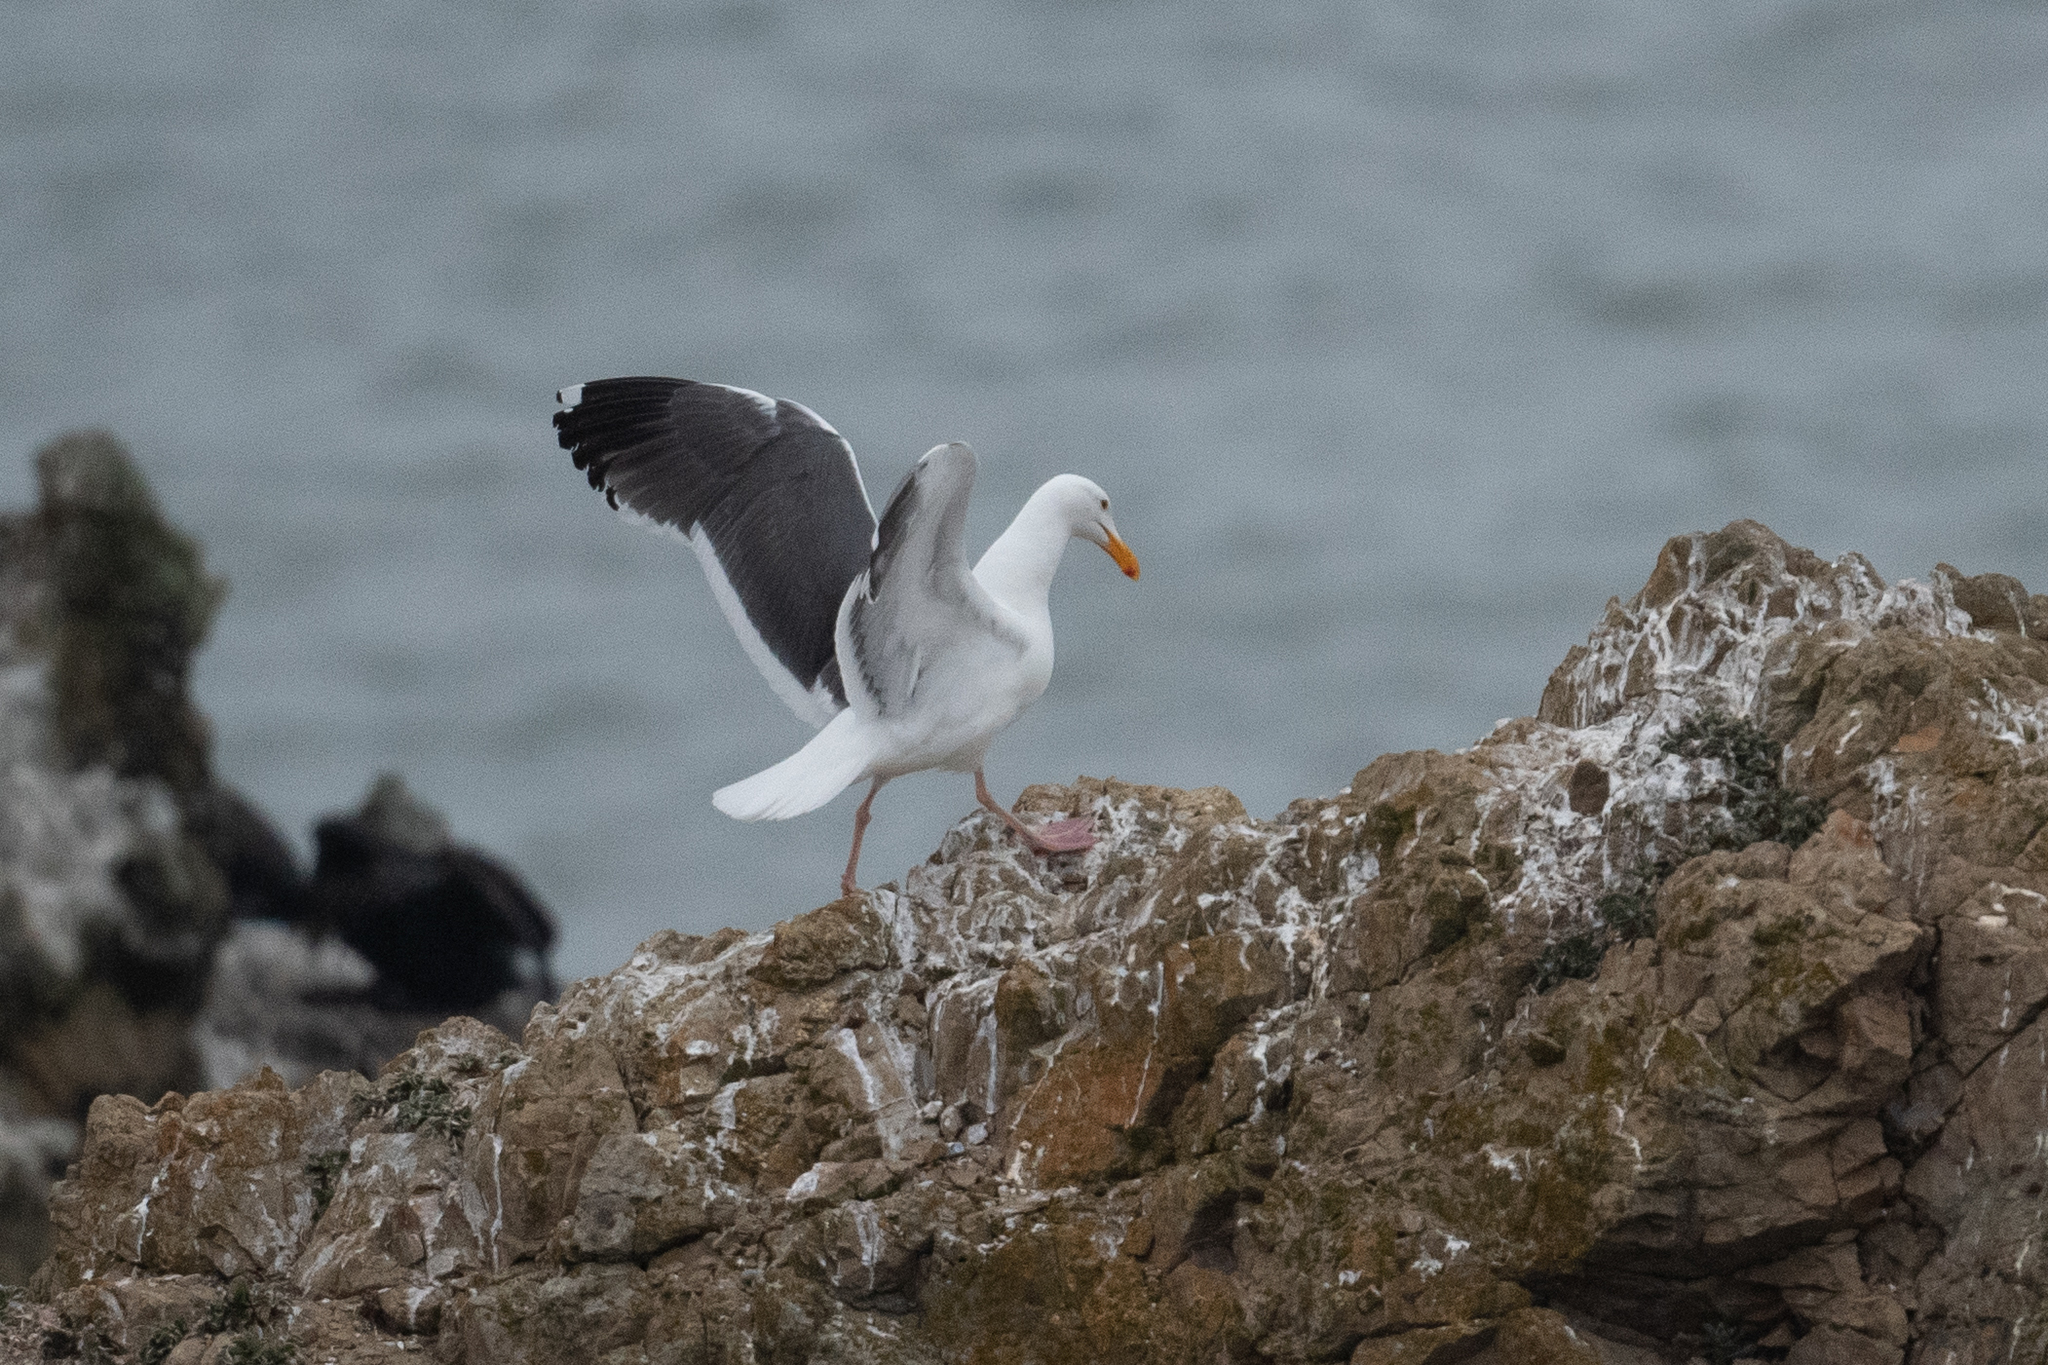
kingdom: Animalia
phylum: Chordata
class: Aves
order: Charadriiformes
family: Laridae
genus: Larus
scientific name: Larus occidentalis
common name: Western gull
